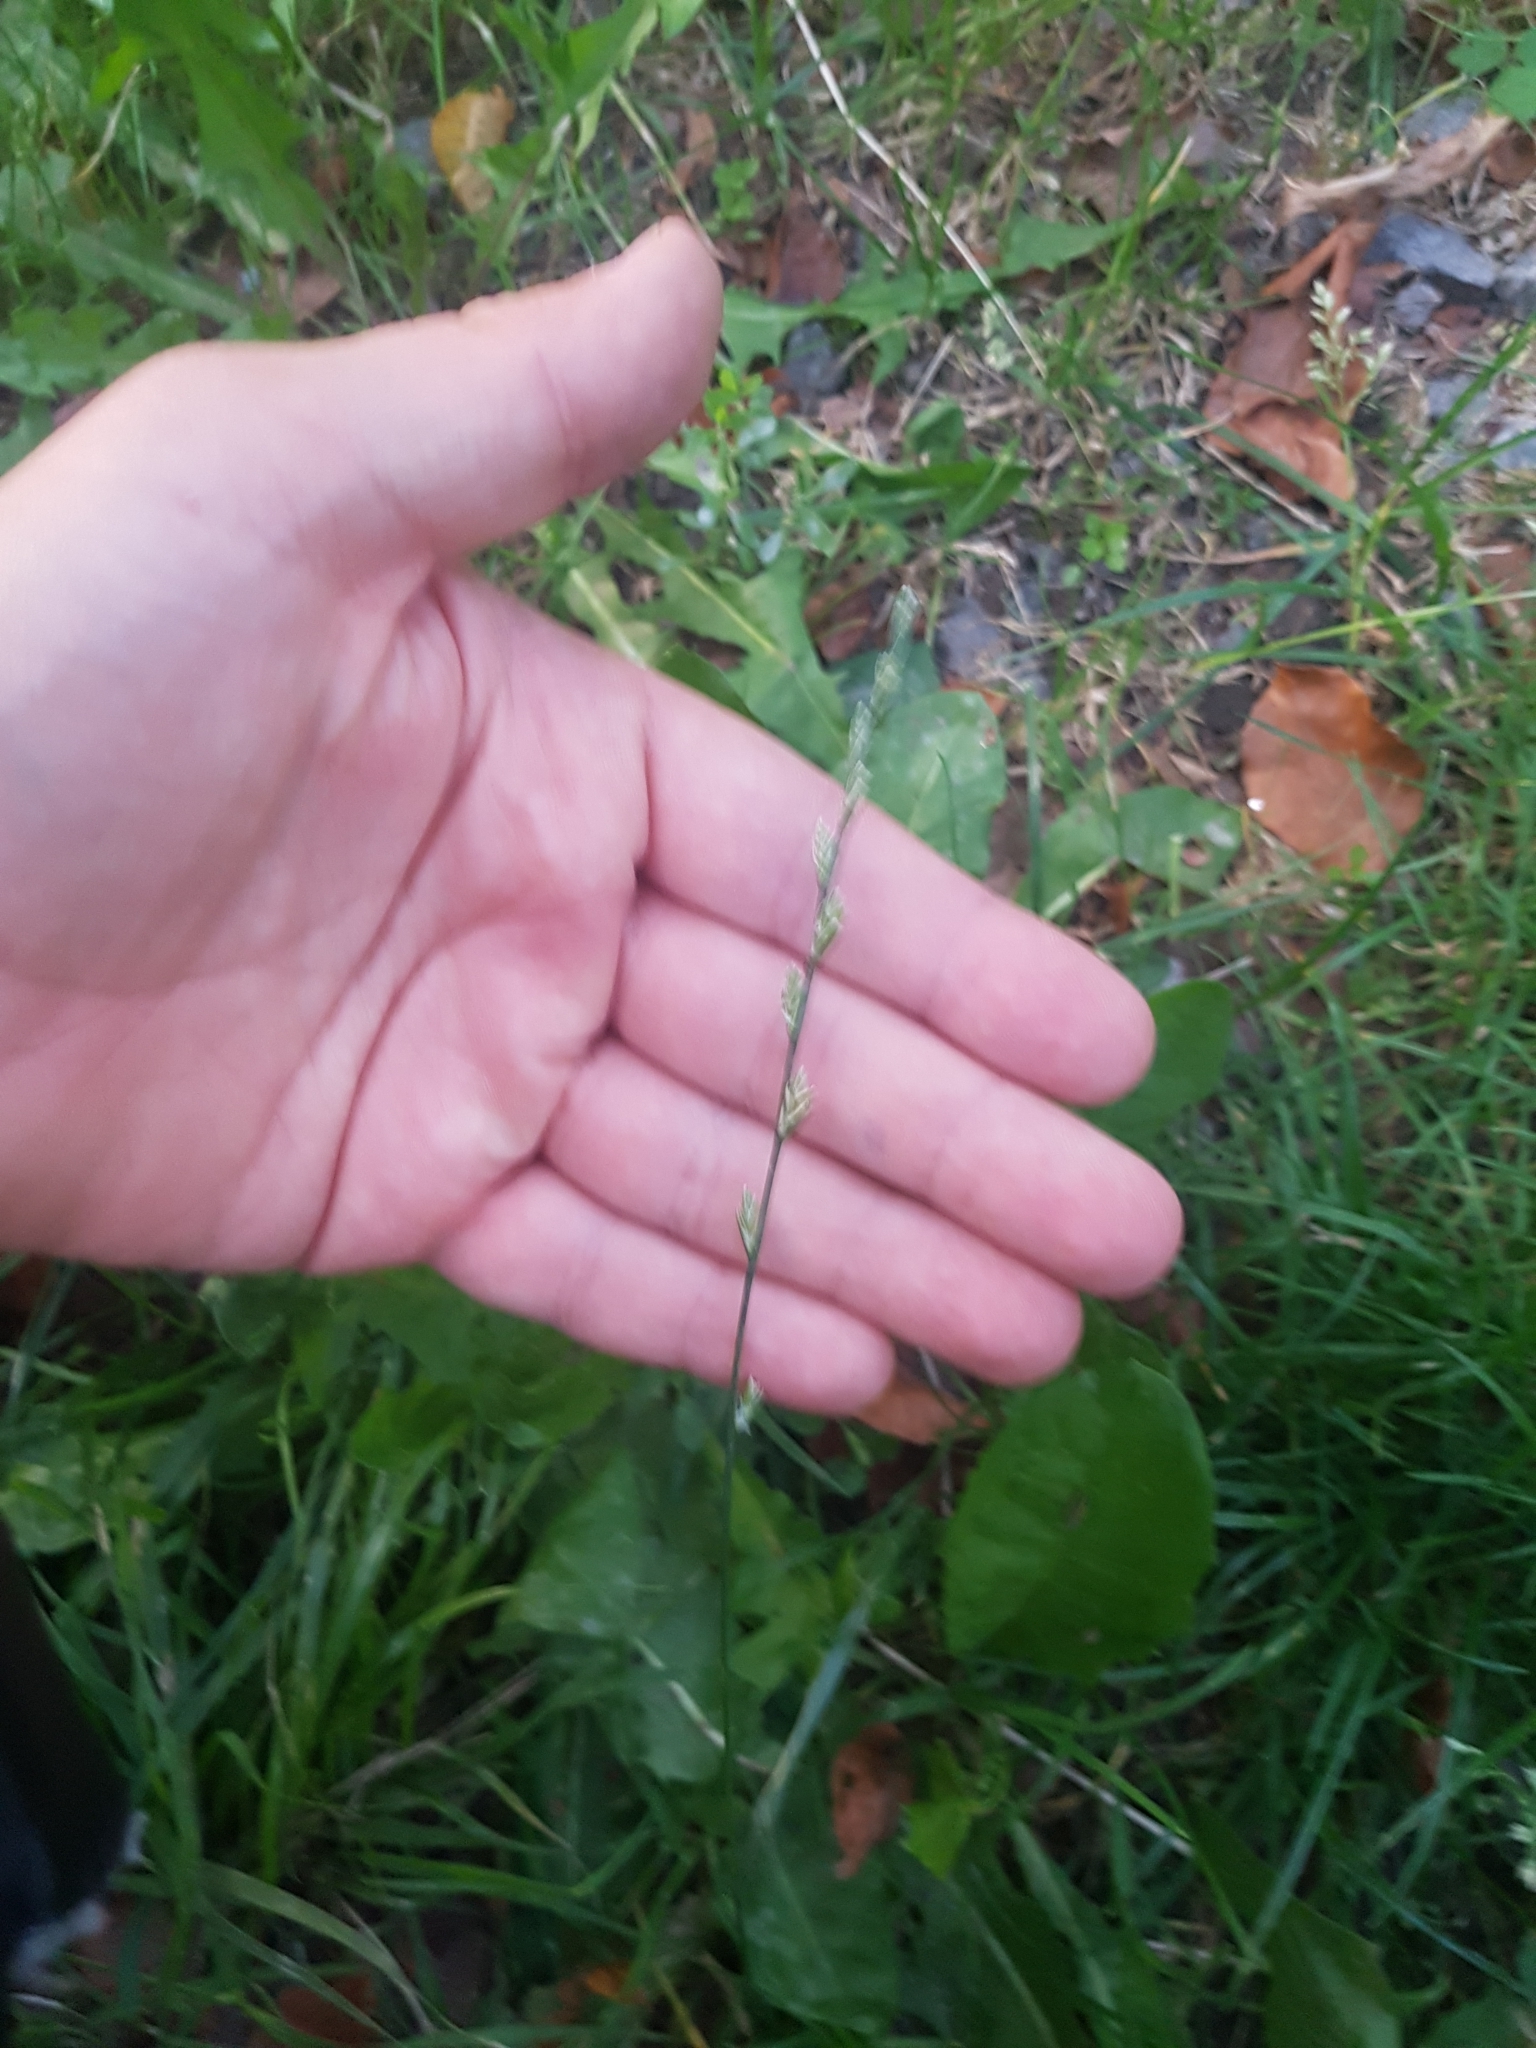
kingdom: Plantae
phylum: Tracheophyta
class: Liliopsida
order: Poales
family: Poaceae
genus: Lolium
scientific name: Lolium perenne
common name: Perennial ryegrass
